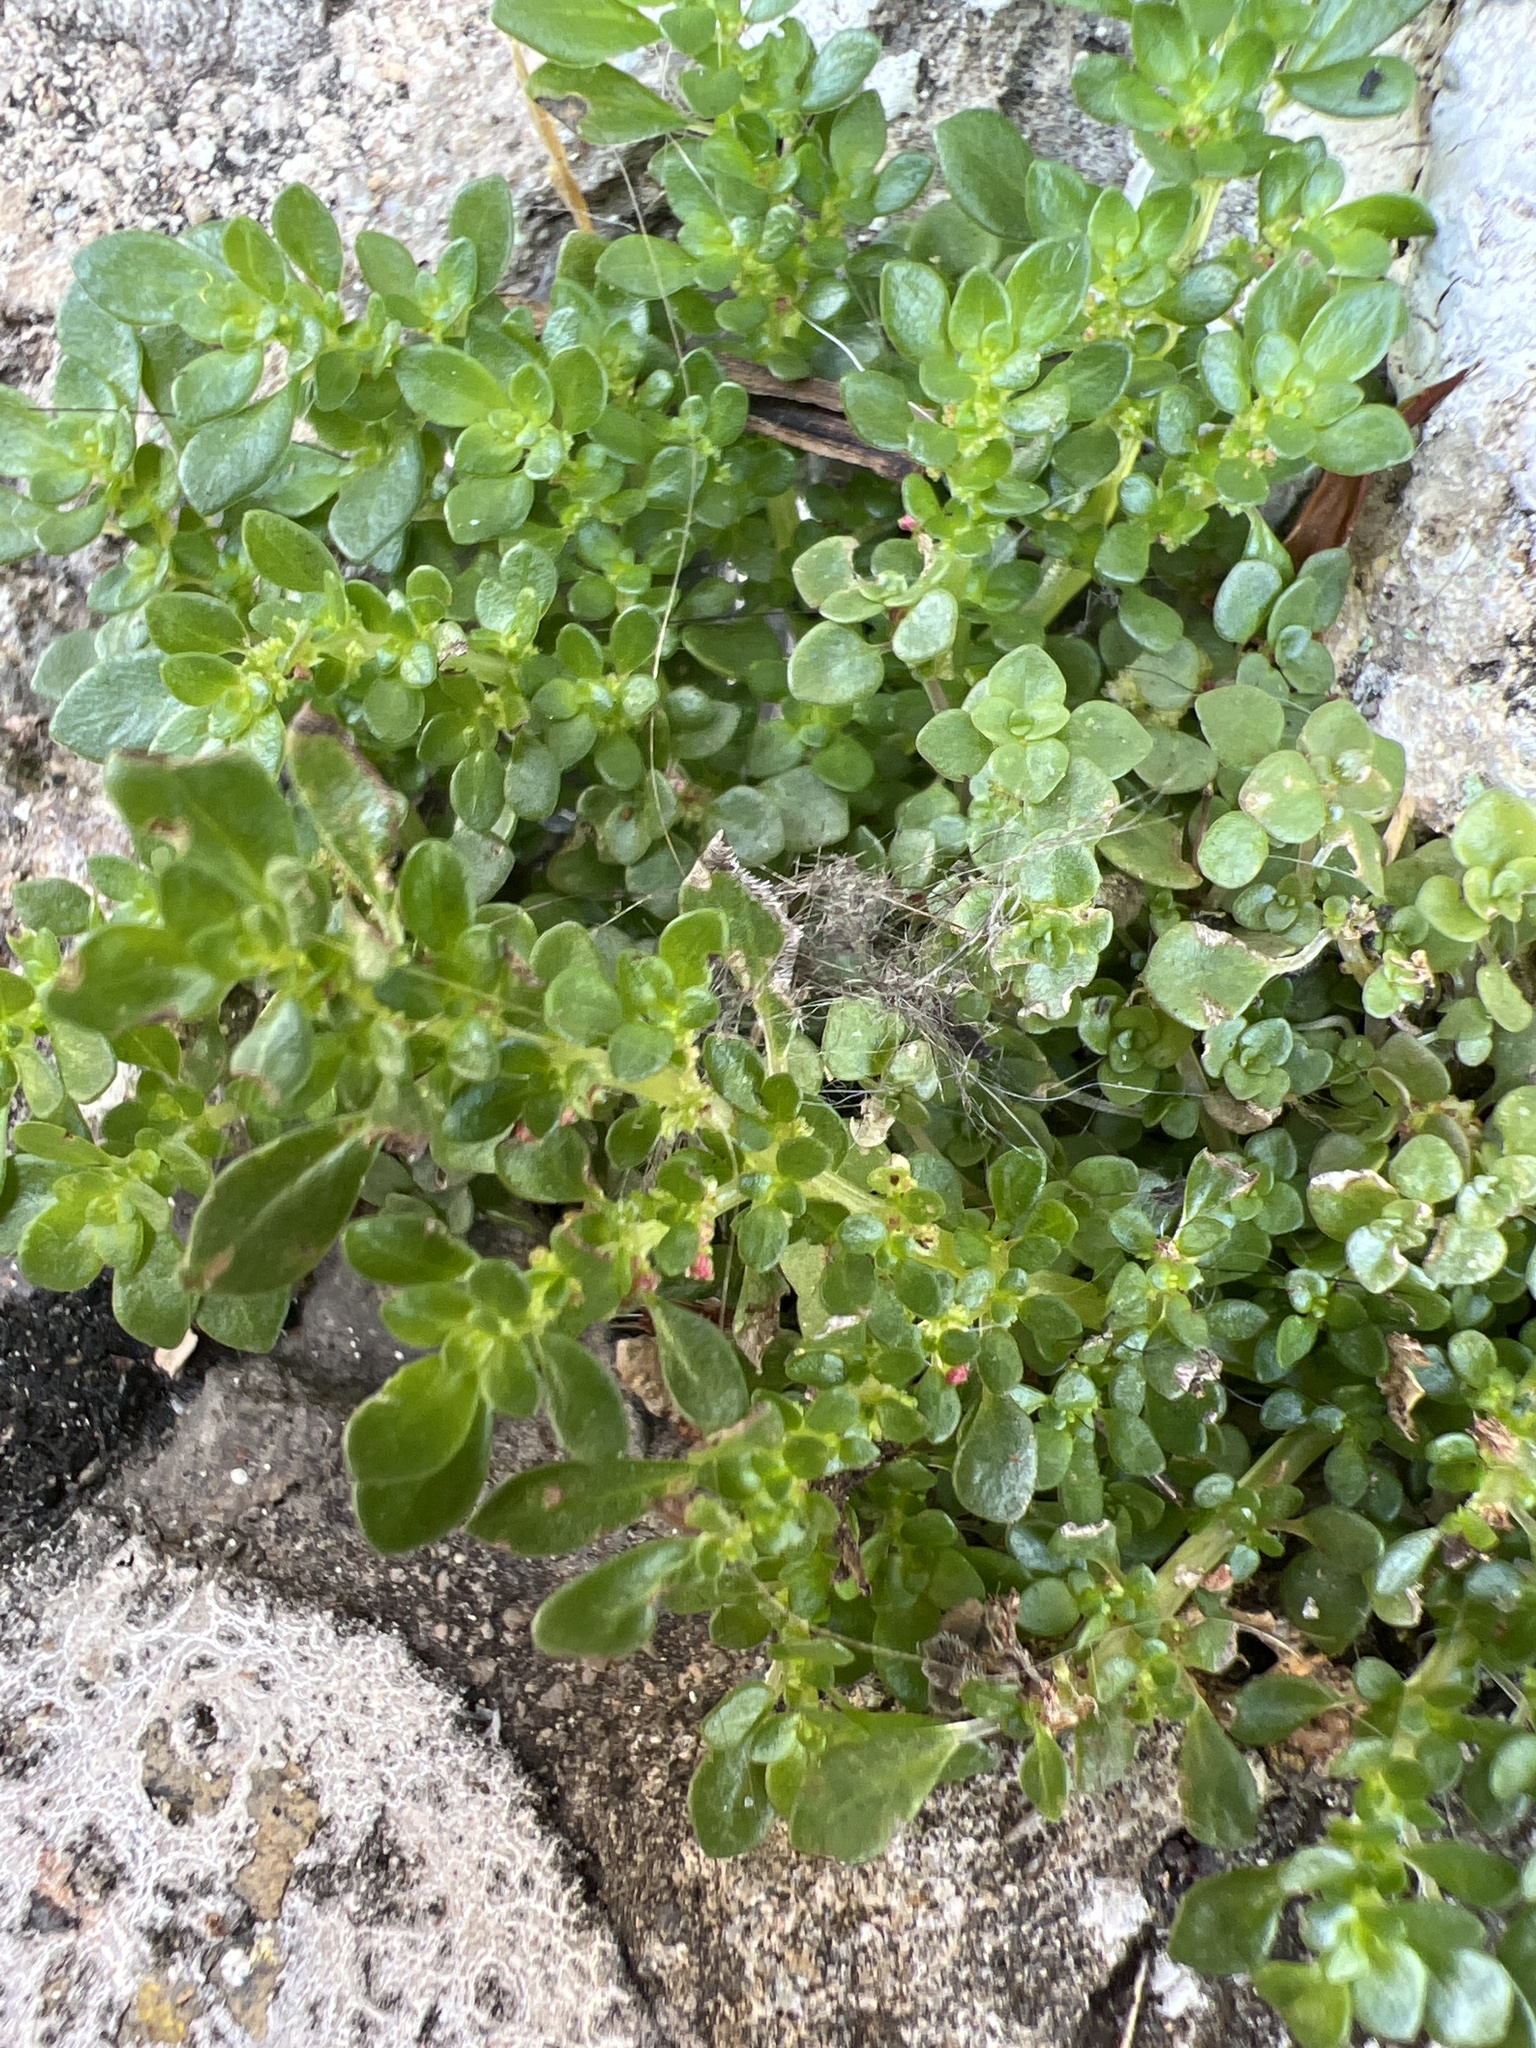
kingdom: Plantae
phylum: Tracheophyta
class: Magnoliopsida
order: Rosales
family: Urticaceae
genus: Pilea
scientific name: Pilea microphylla
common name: Artillery-plant
